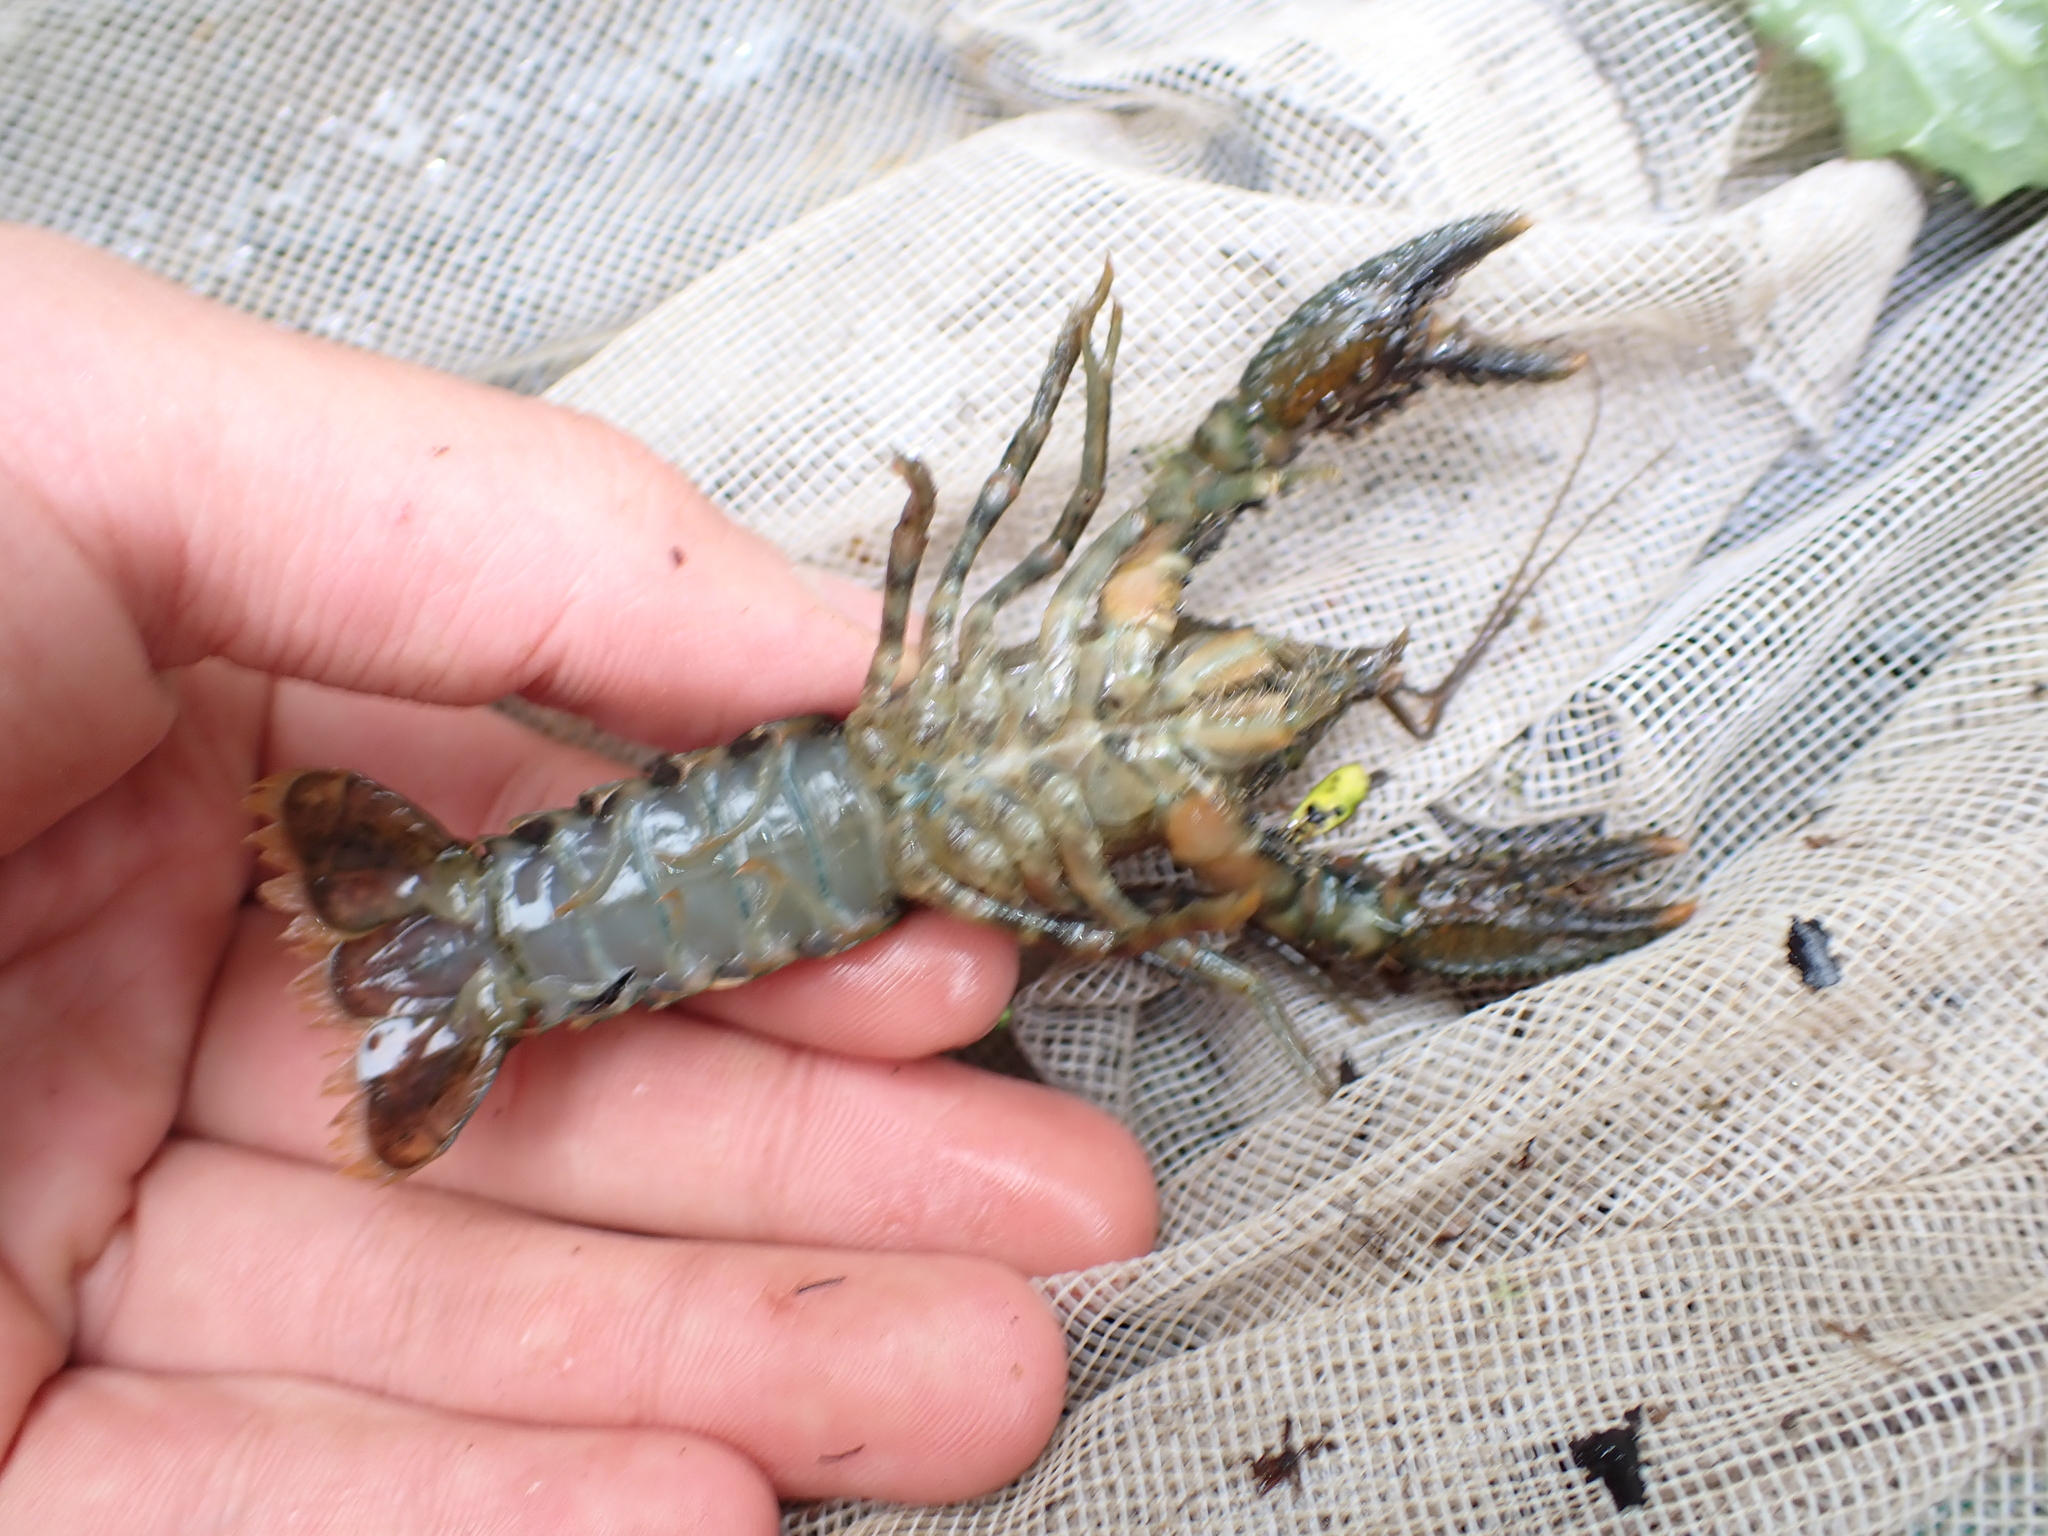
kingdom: Animalia
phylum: Arthropoda
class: Malacostraca
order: Decapoda
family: Parastacidae
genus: Paranephrops
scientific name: Paranephrops zealandicus
